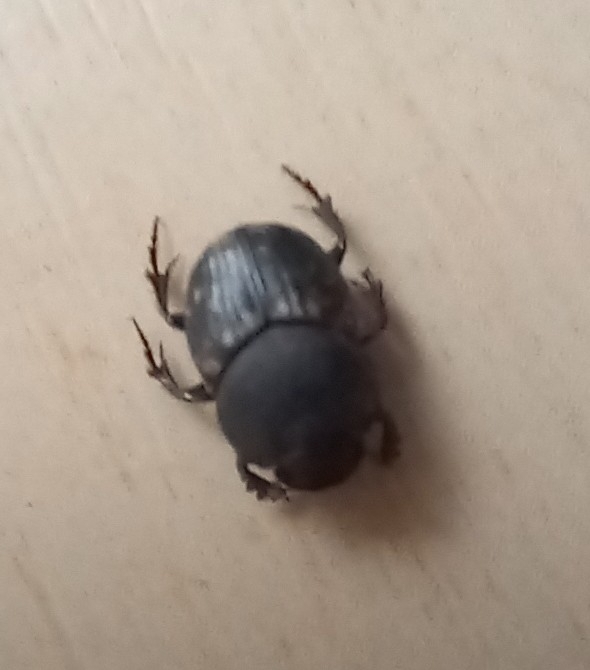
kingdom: Animalia
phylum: Arthropoda
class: Insecta
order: Coleoptera
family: Scarabaeidae
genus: Onthophagus
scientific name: Onthophagus nuchicornis
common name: Mottled dung beetle
